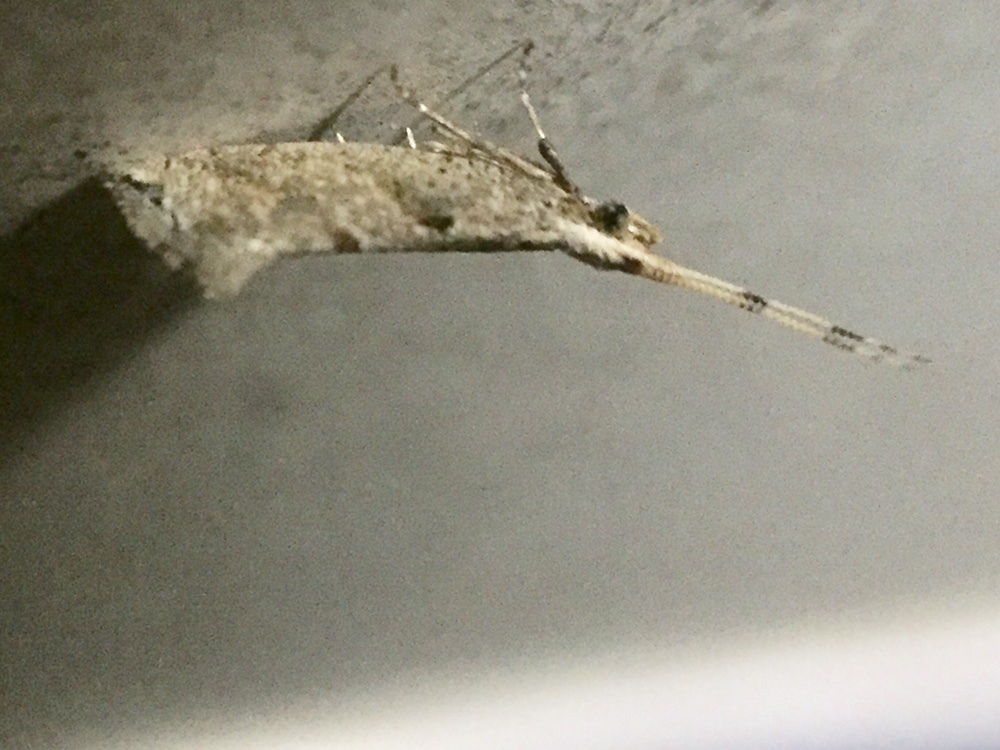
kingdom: Animalia
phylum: Arthropoda
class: Insecta
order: Lepidoptera
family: Plutellidae
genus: Leuroperna
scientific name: Leuroperna sera
